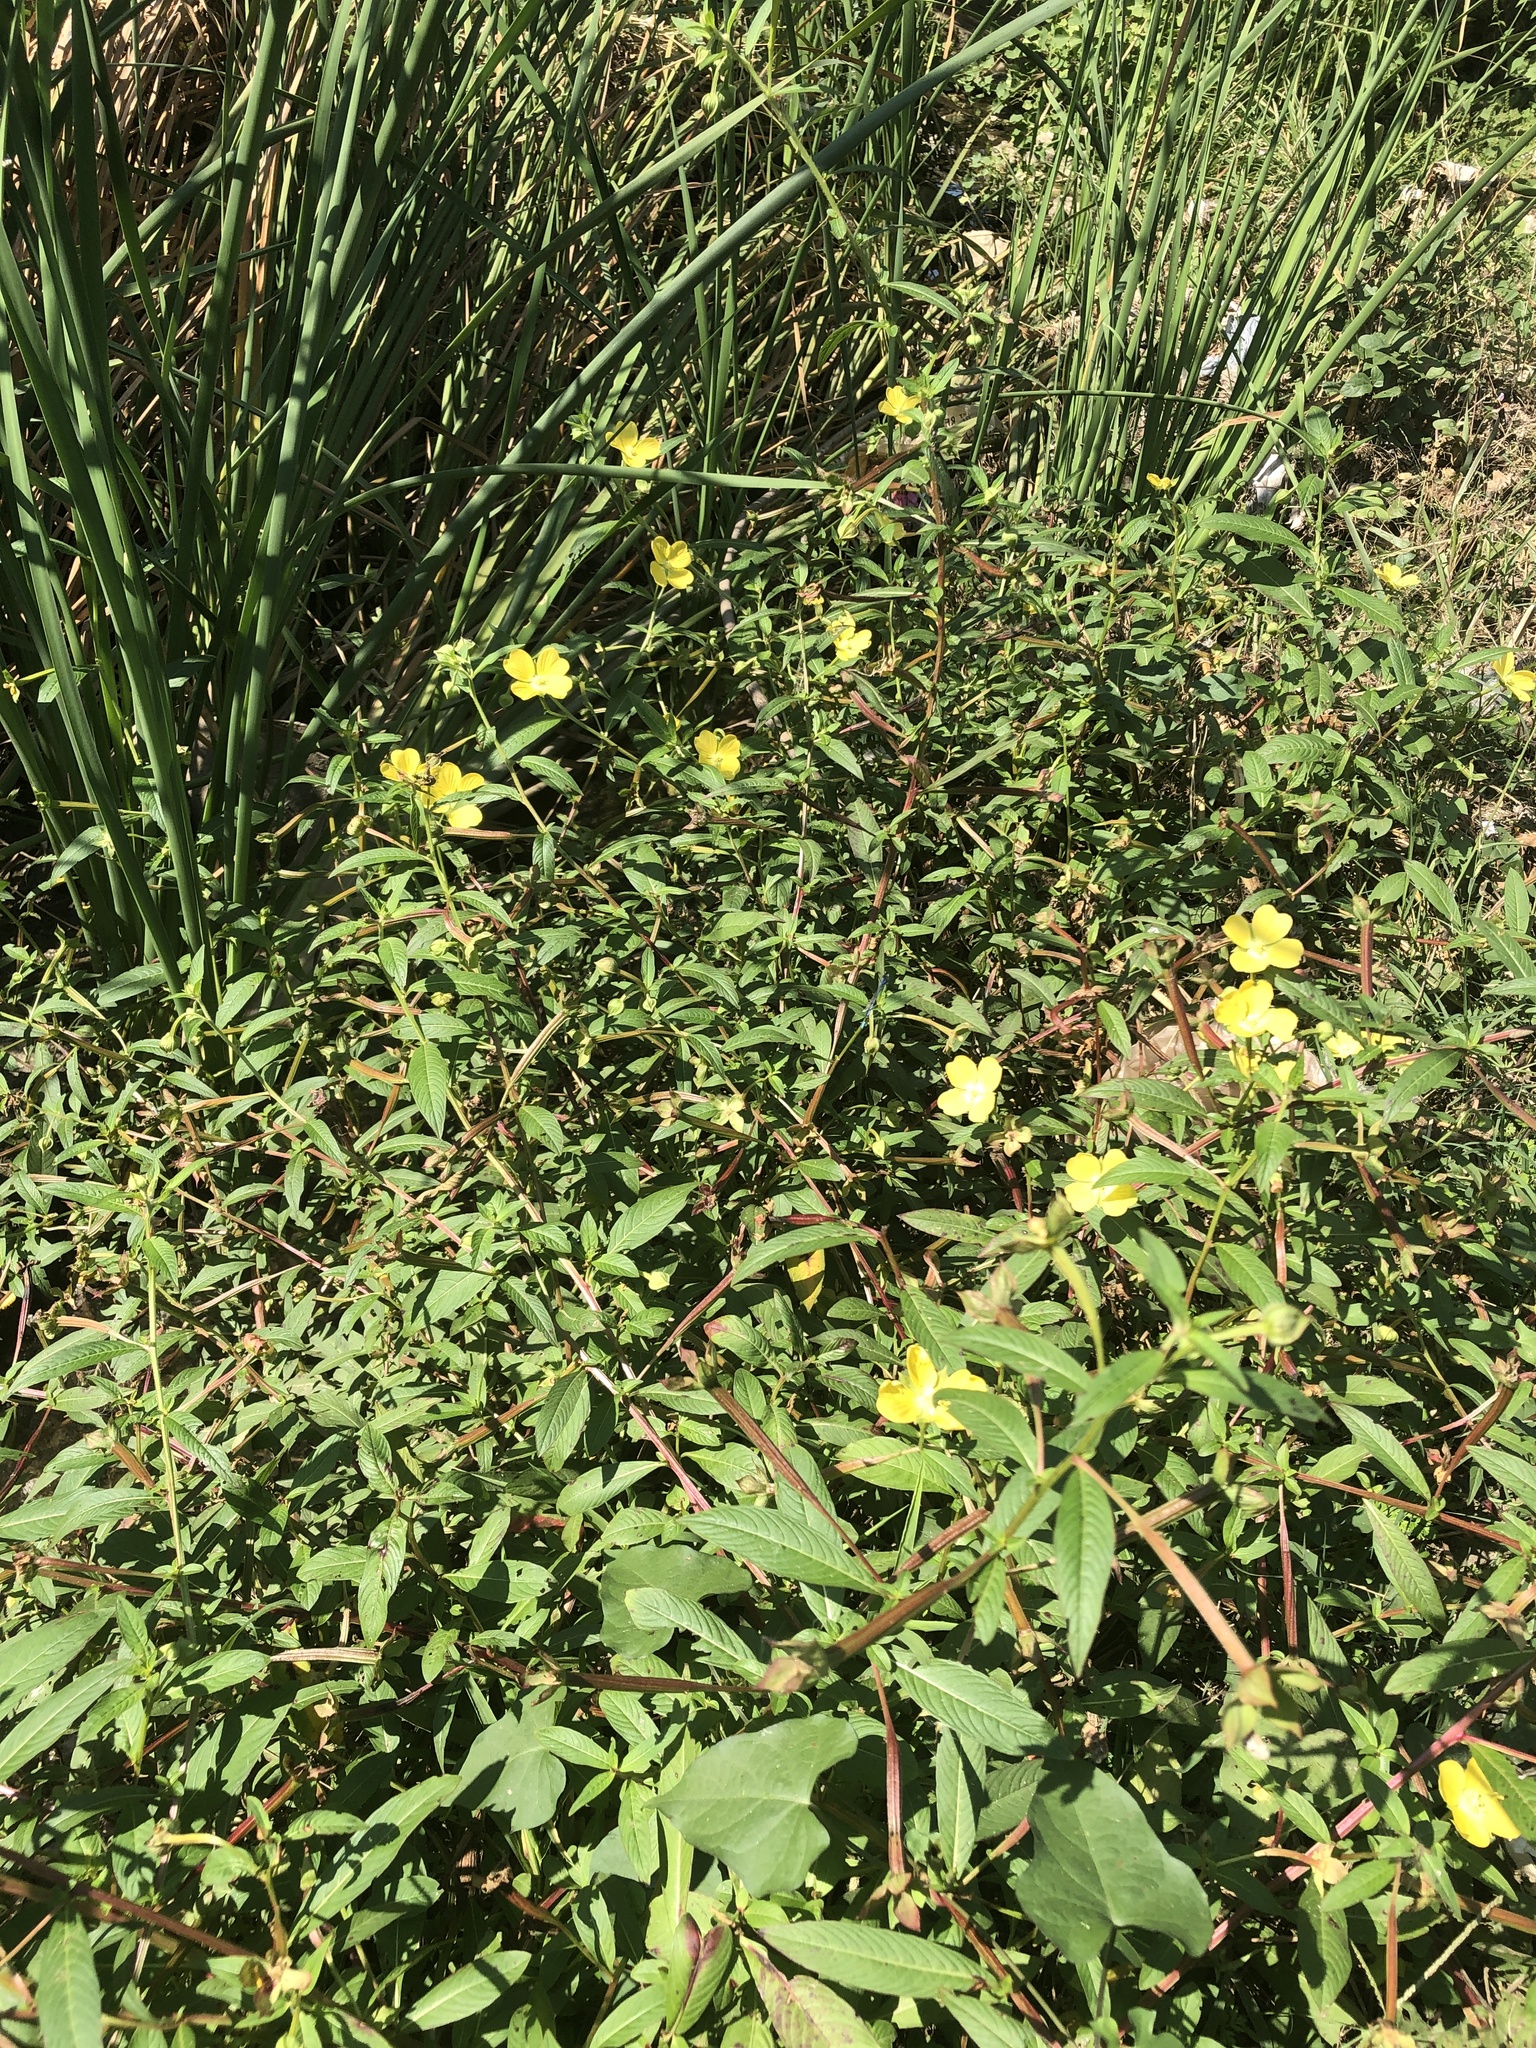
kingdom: Plantae
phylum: Tracheophyta
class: Magnoliopsida
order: Myrtales
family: Onagraceae
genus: Ludwigia
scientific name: Ludwigia octovalvis
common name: Water-primrose
